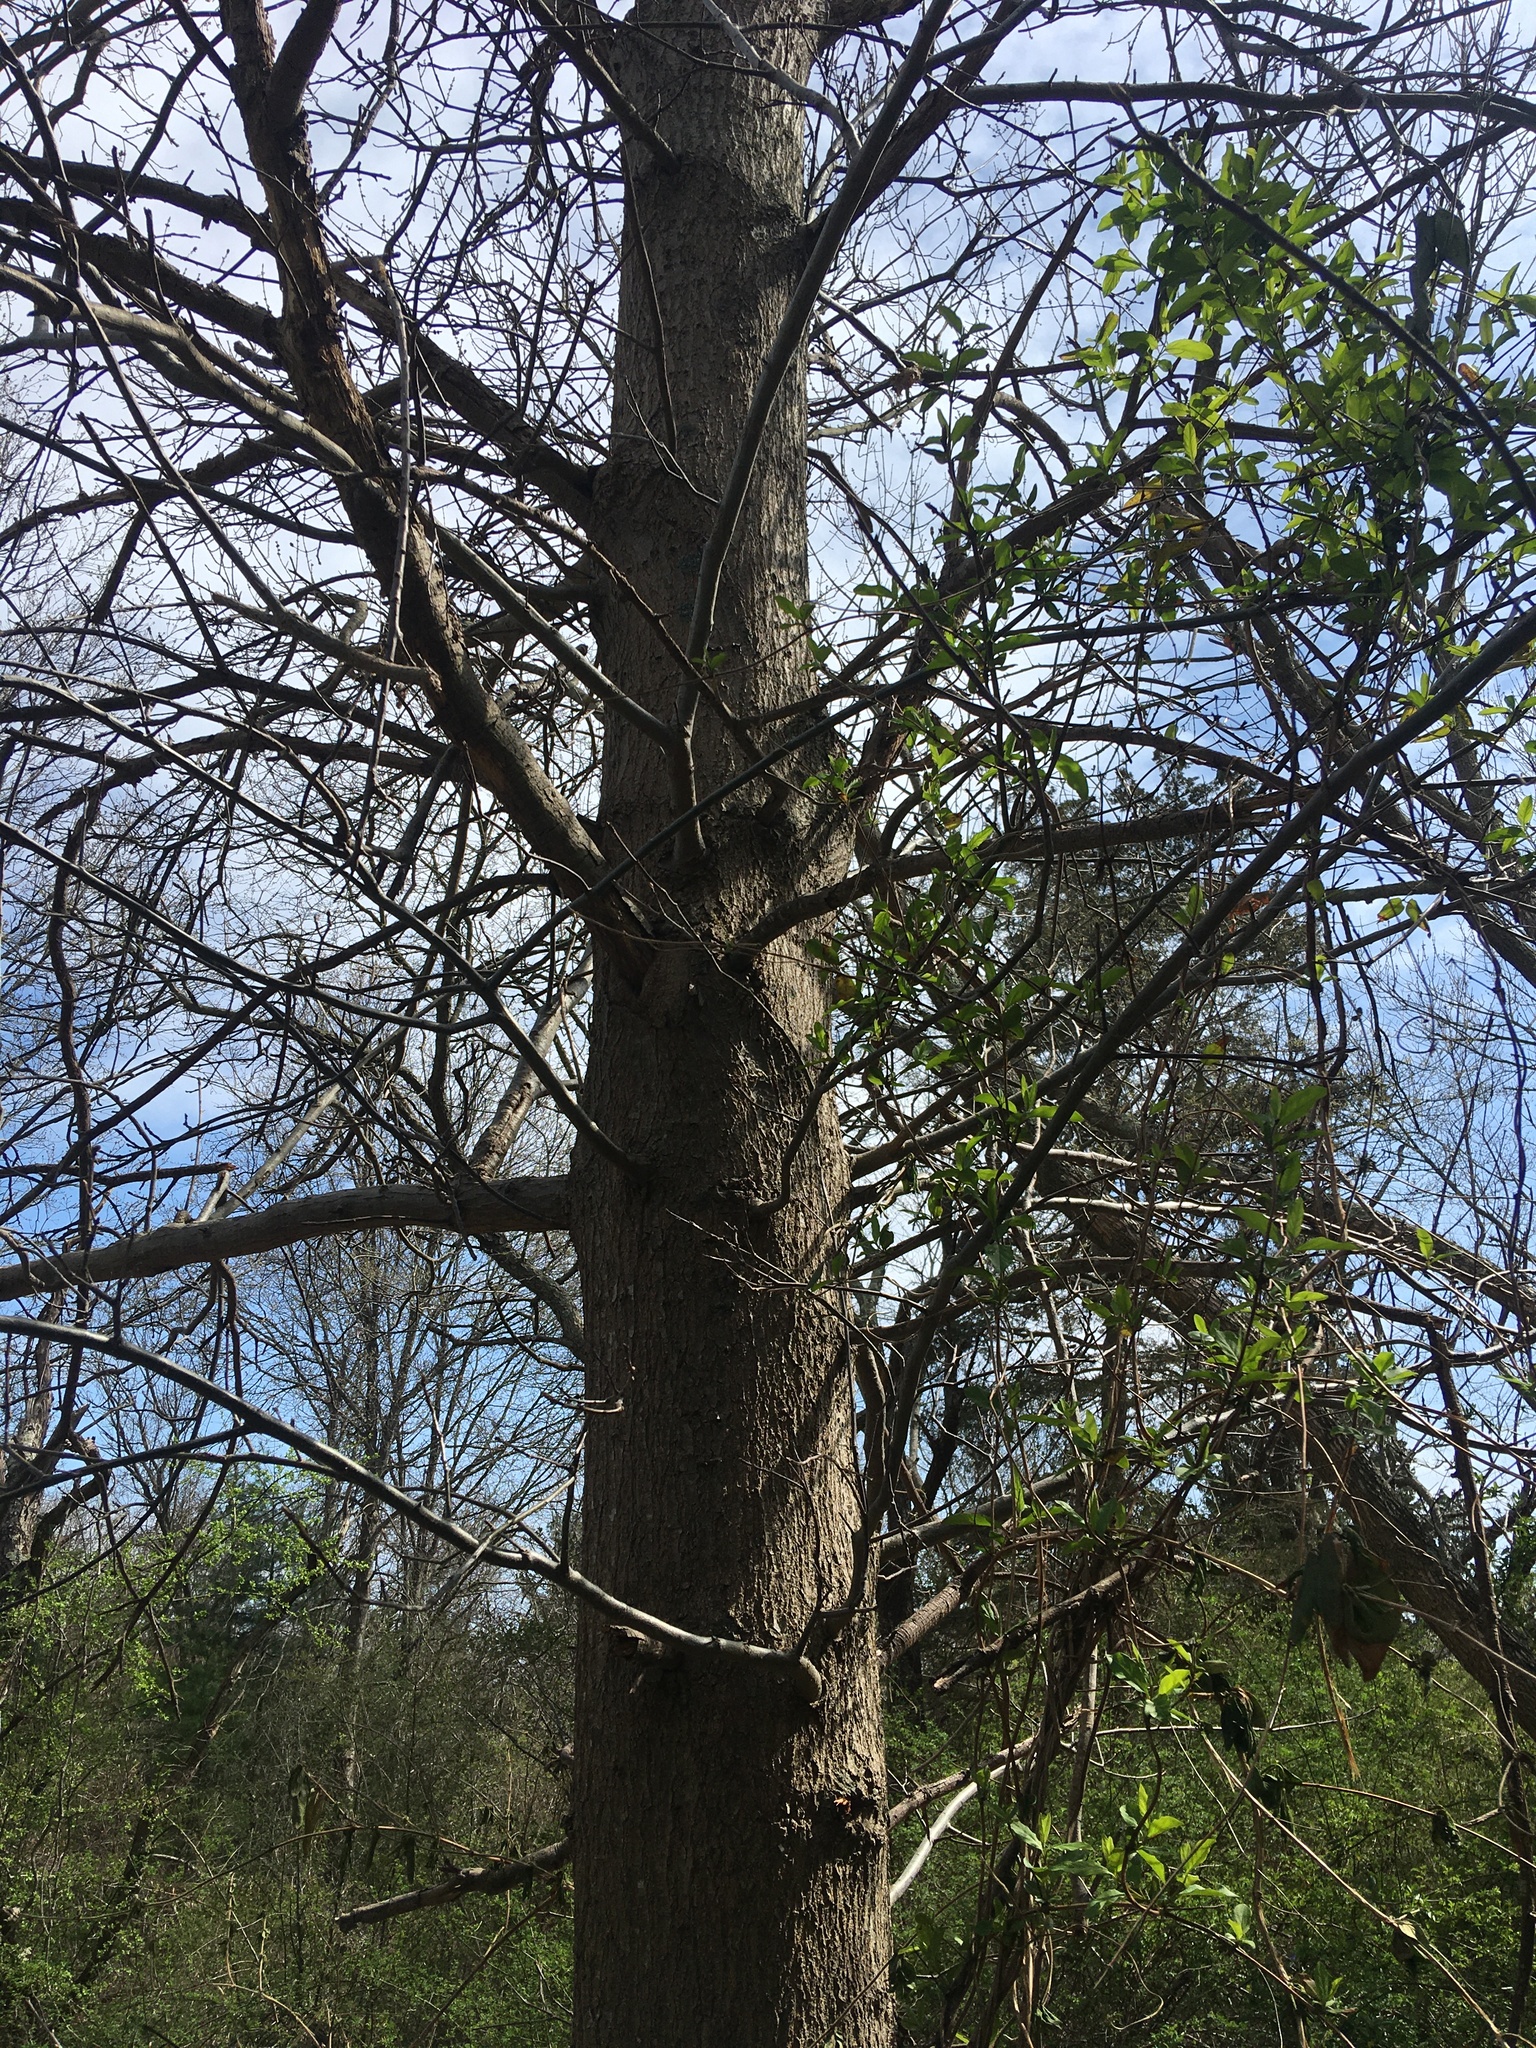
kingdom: Plantae
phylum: Tracheophyta
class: Magnoliopsida
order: Fagales
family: Fagaceae
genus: Quercus
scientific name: Quercus palustris
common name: Pin oak
